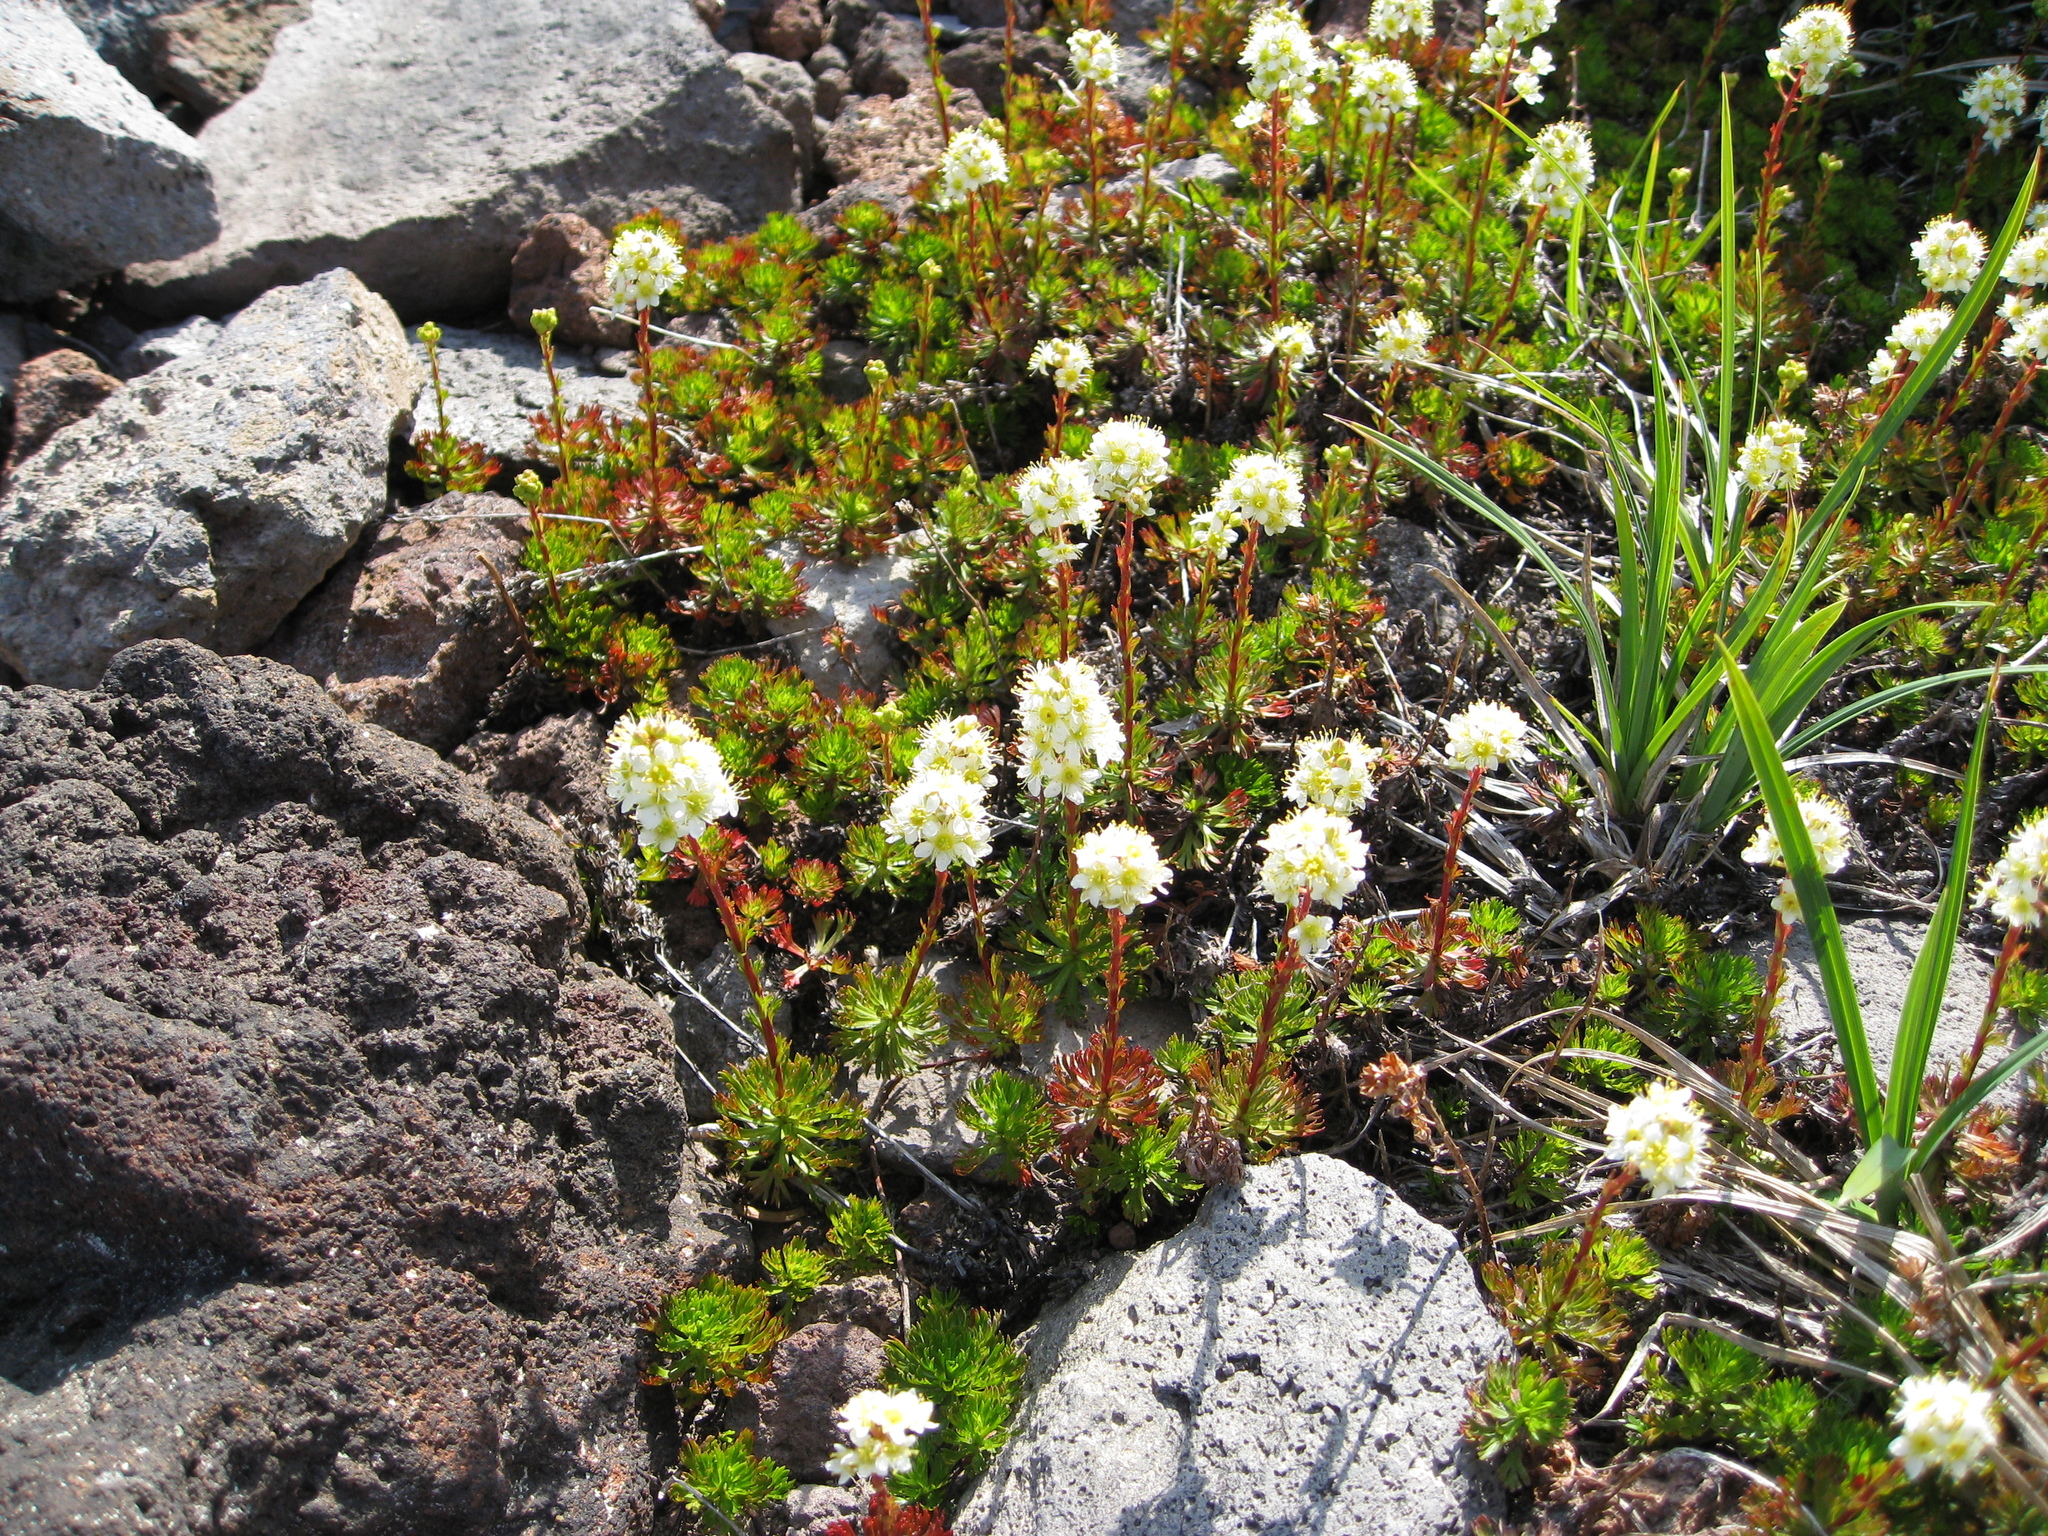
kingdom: Plantae
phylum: Tracheophyta
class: Magnoliopsida
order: Rosales
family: Rosaceae
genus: Luetkea
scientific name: Luetkea pectinata
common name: Partridgefoot
